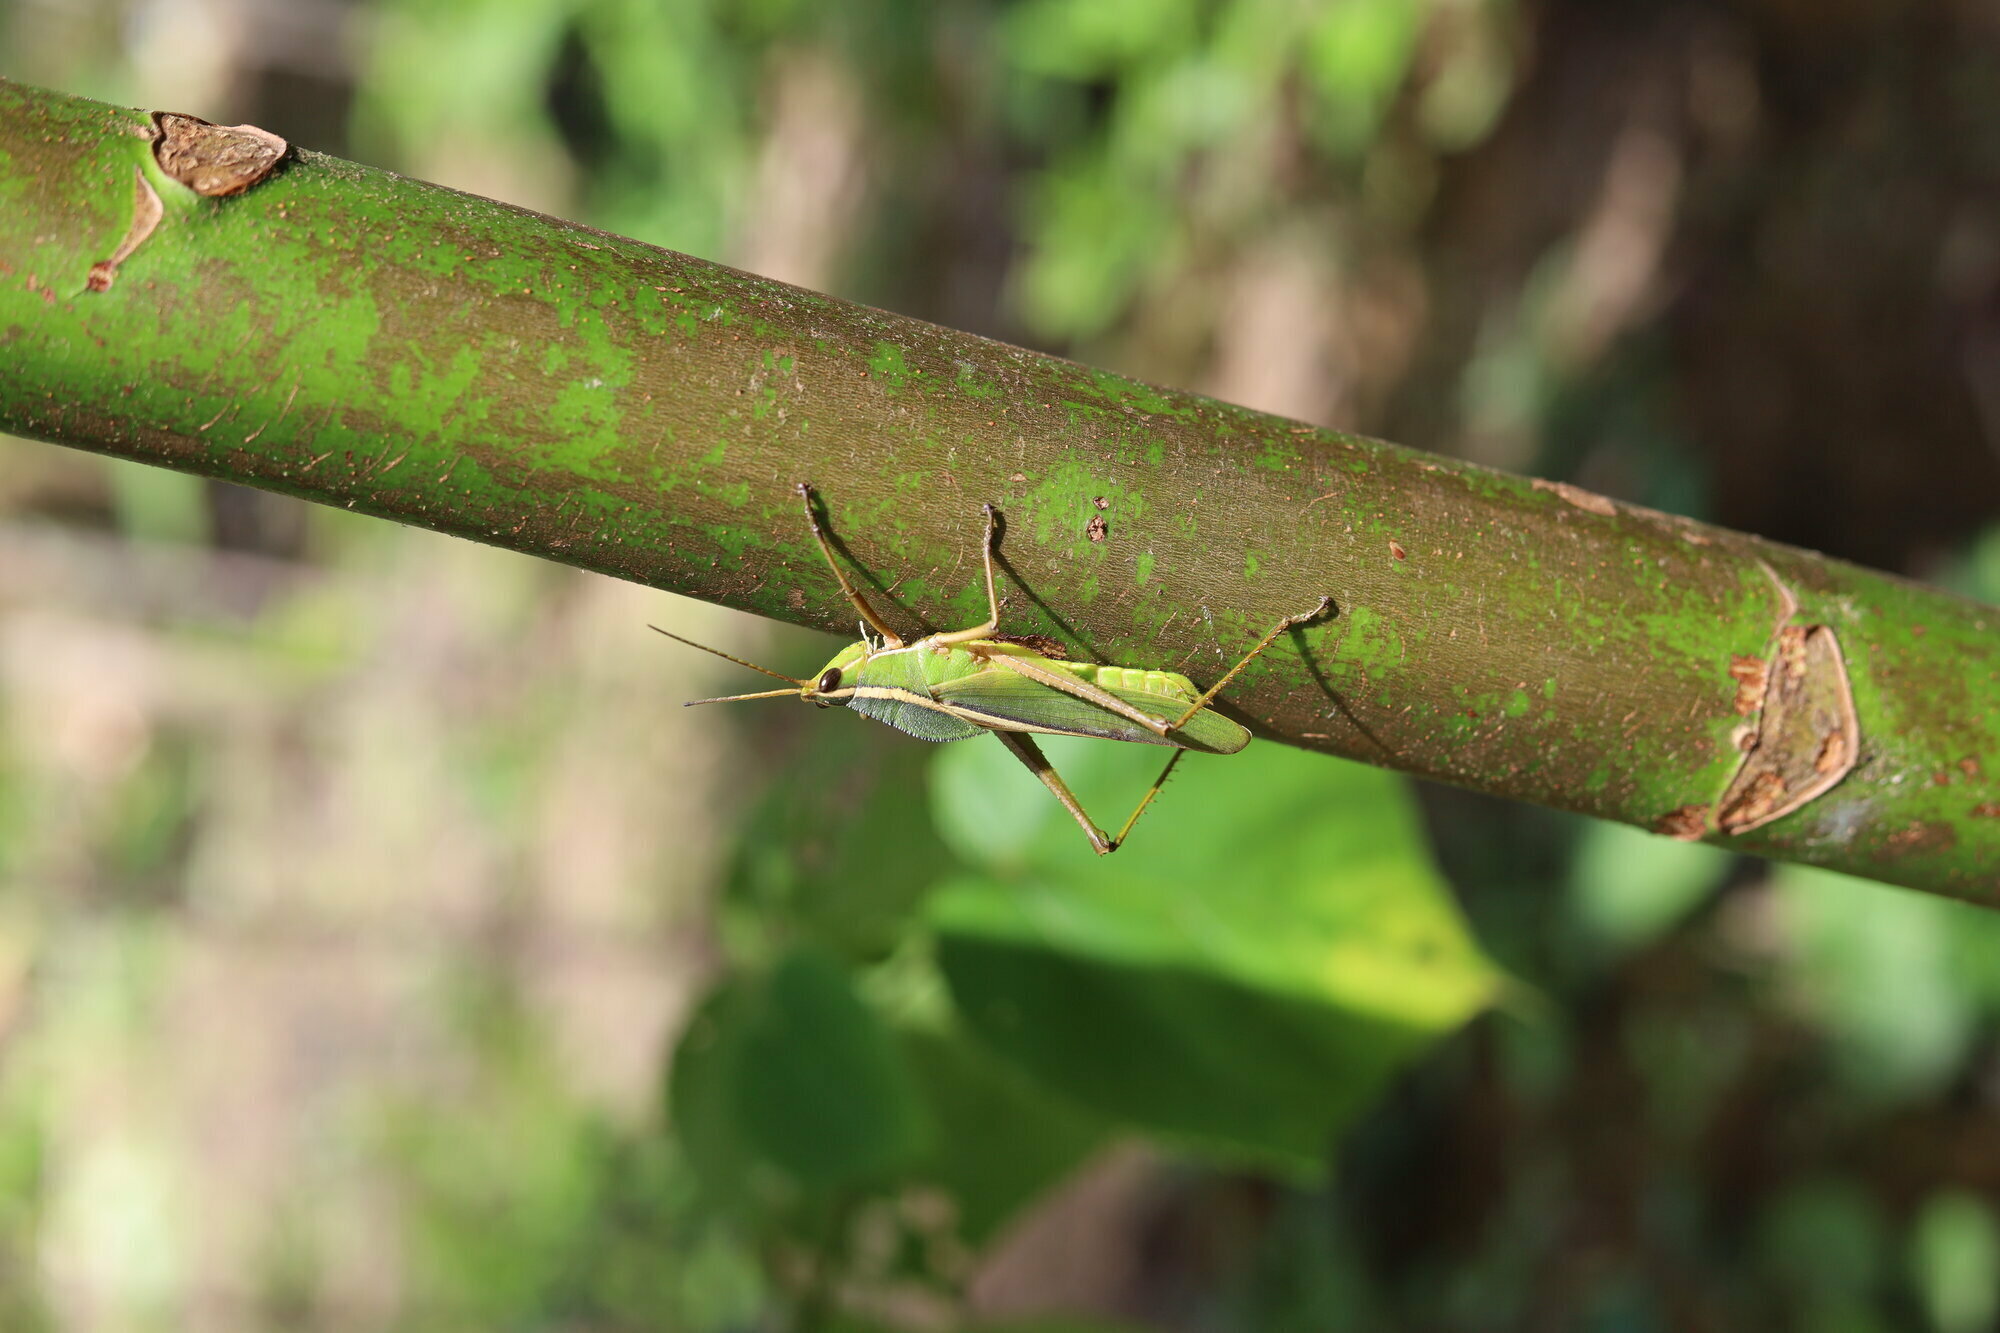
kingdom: Animalia
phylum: Arthropoda
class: Insecta
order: Orthoptera
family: Romaleidae
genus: Prionolopha
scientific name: Prionolopha serrata
